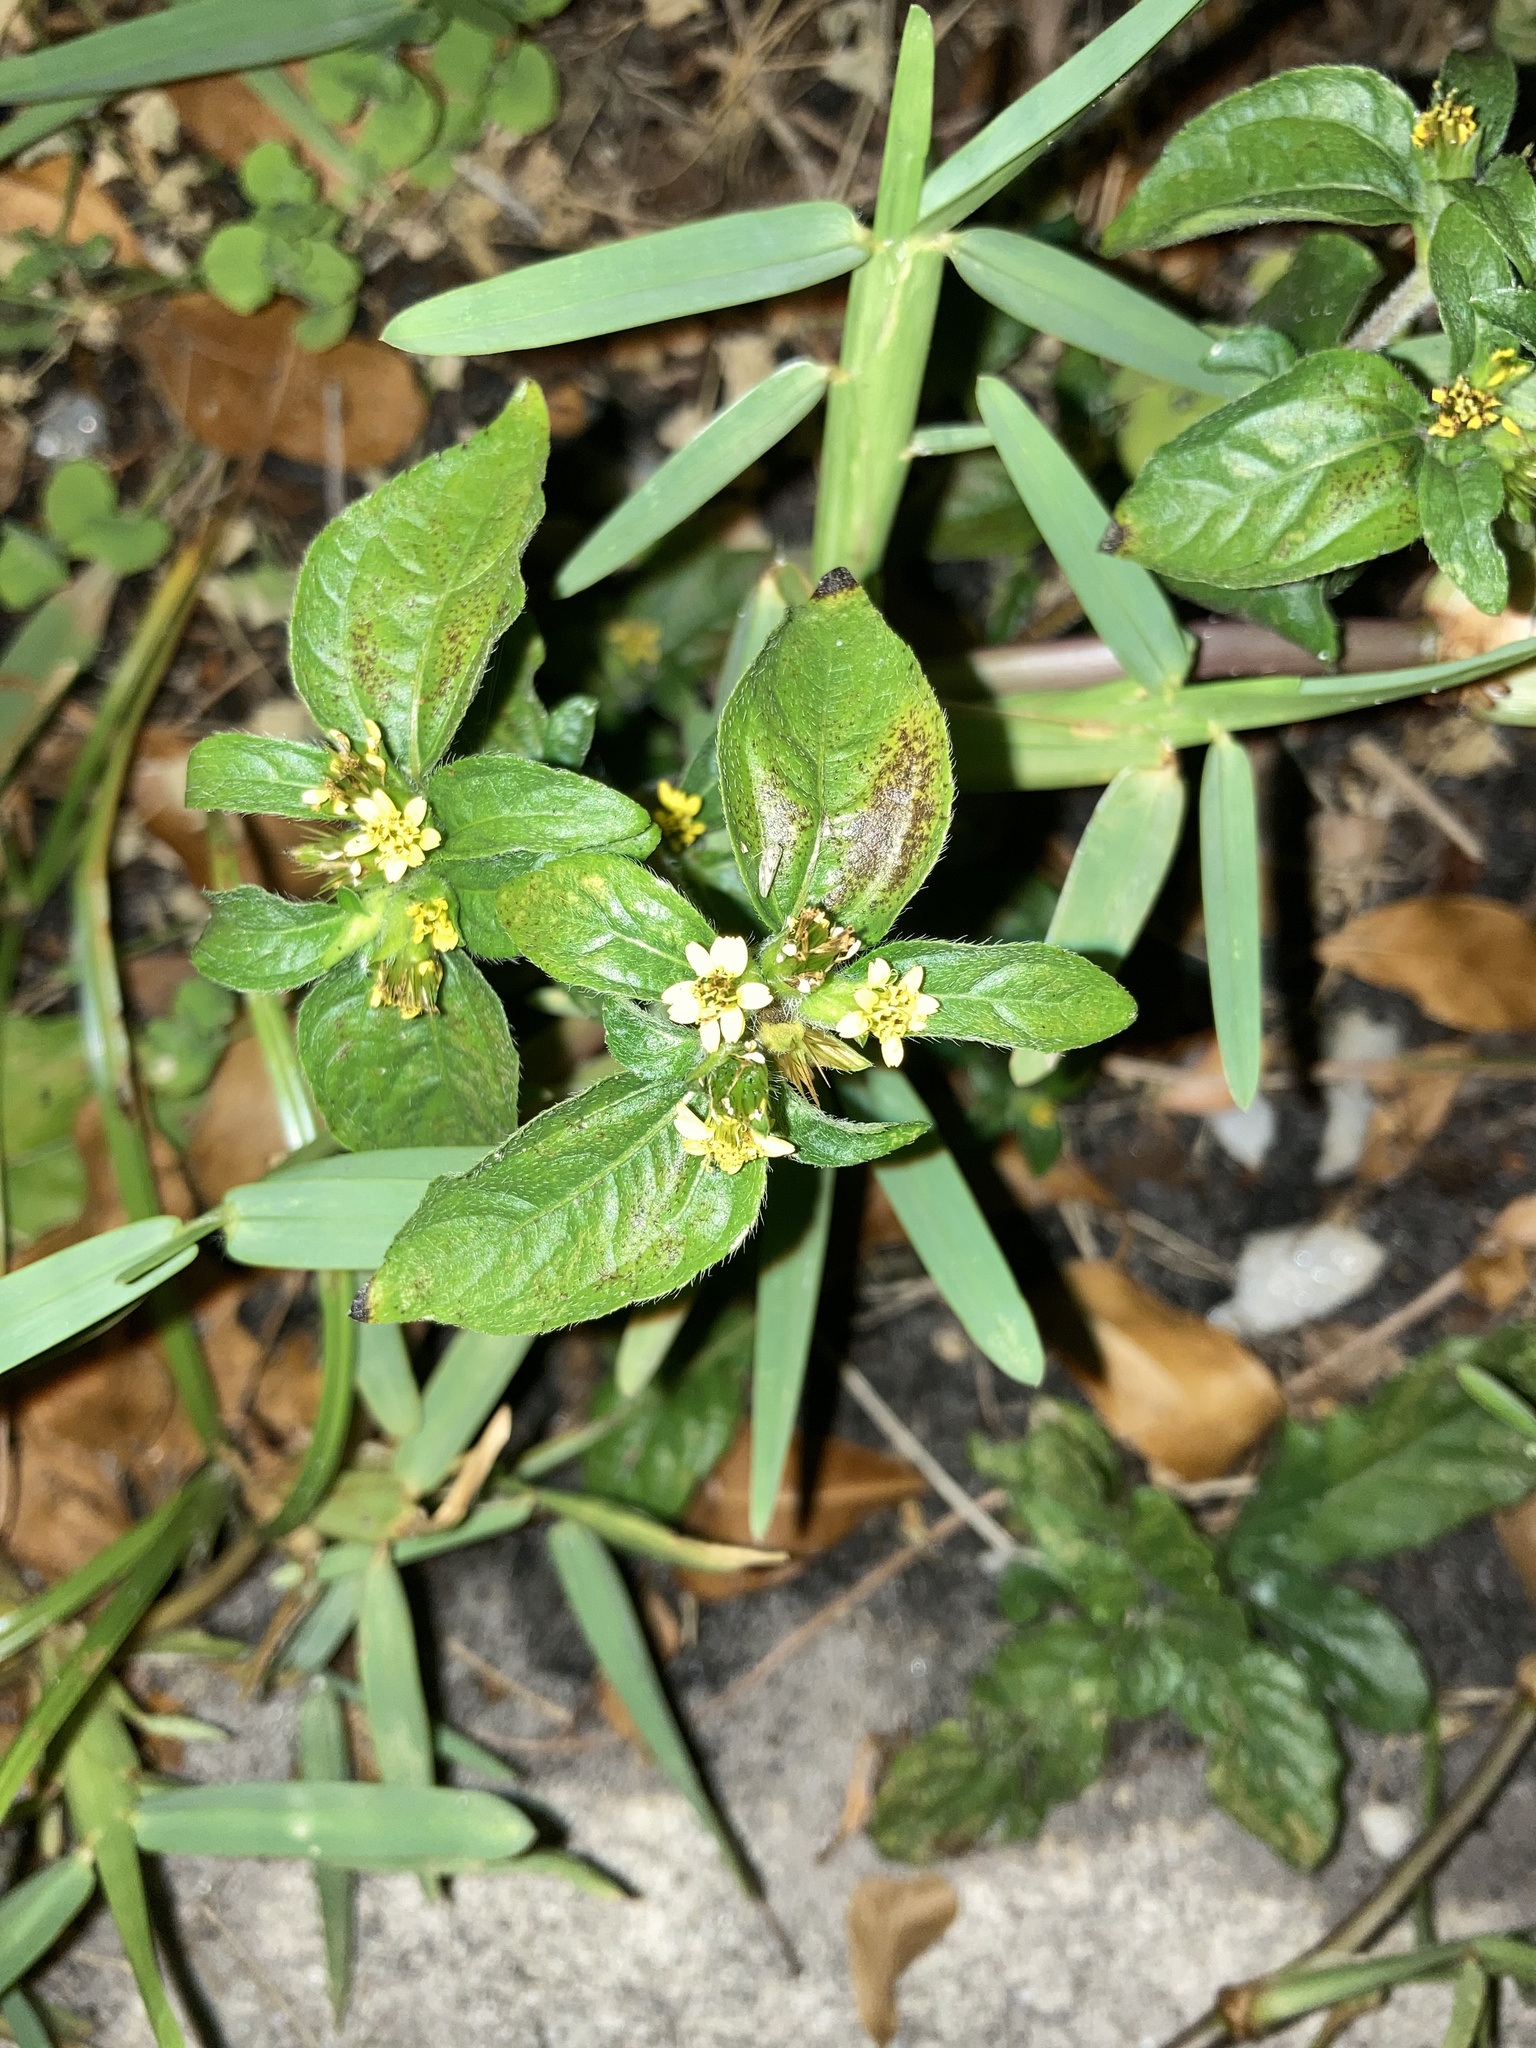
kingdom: Plantae
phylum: Tracheophyta
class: Magnoliopsida
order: Asterales
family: Asteraceae
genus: Synedrella
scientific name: Synedrella nodiflora
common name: Nodeweed
